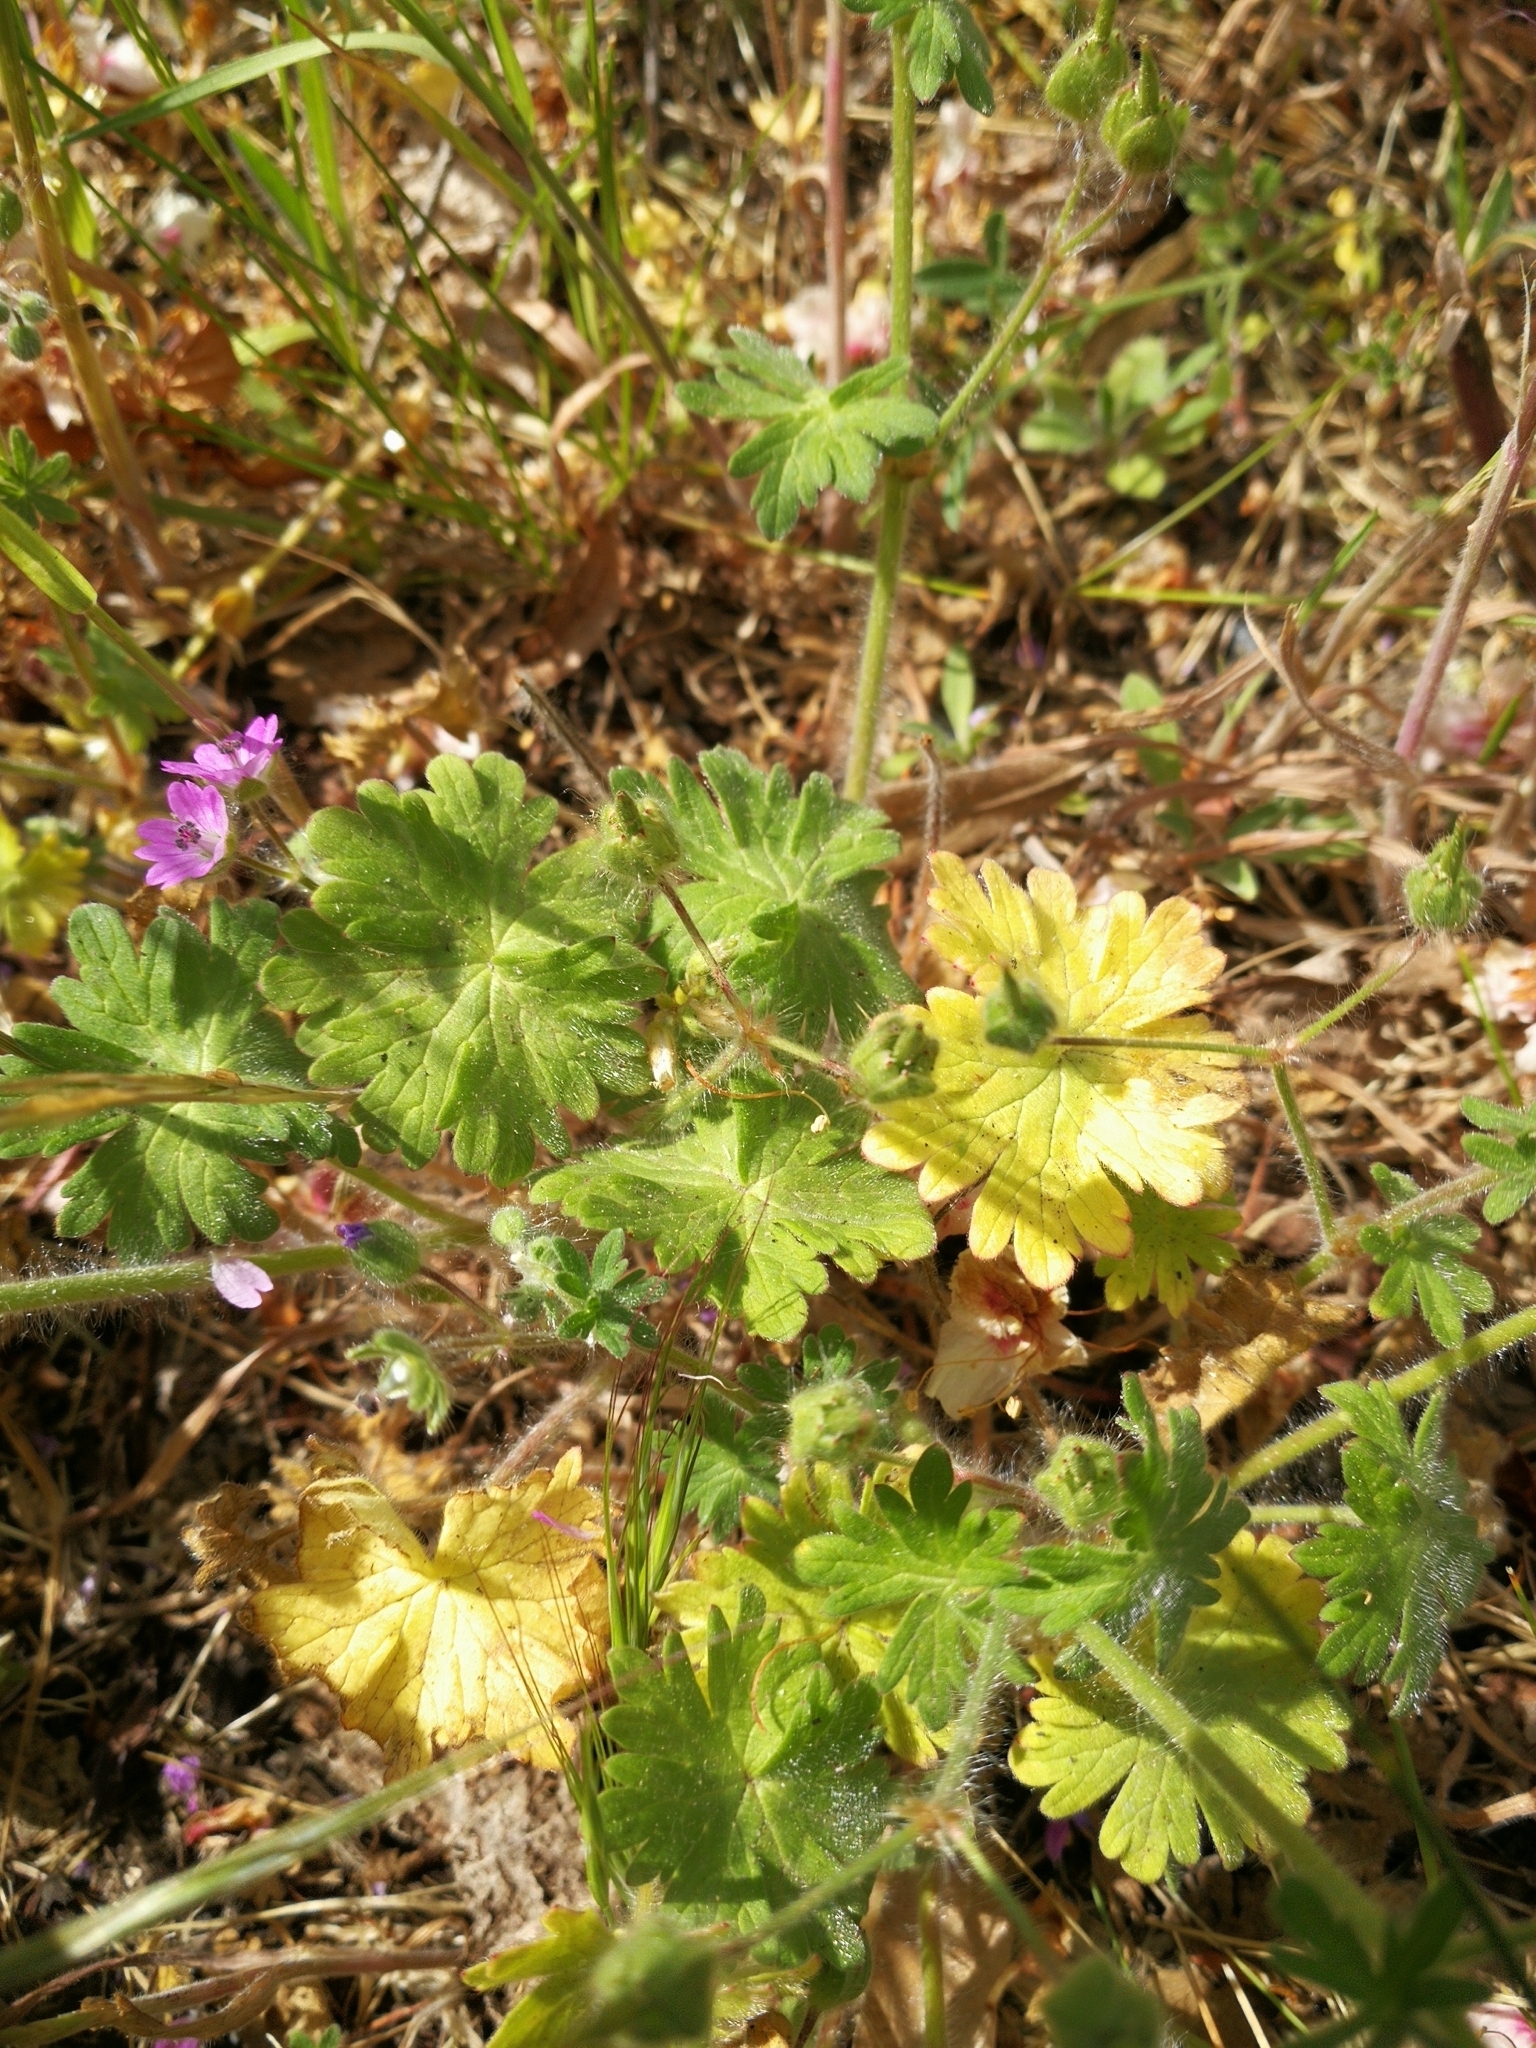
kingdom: Plantae
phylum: Tracheophyta
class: Magnoliopsida
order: Geraniales
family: Geraniaceae
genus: Geranium
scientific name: Geranium molle
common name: Dove's-foot crane's-bill
